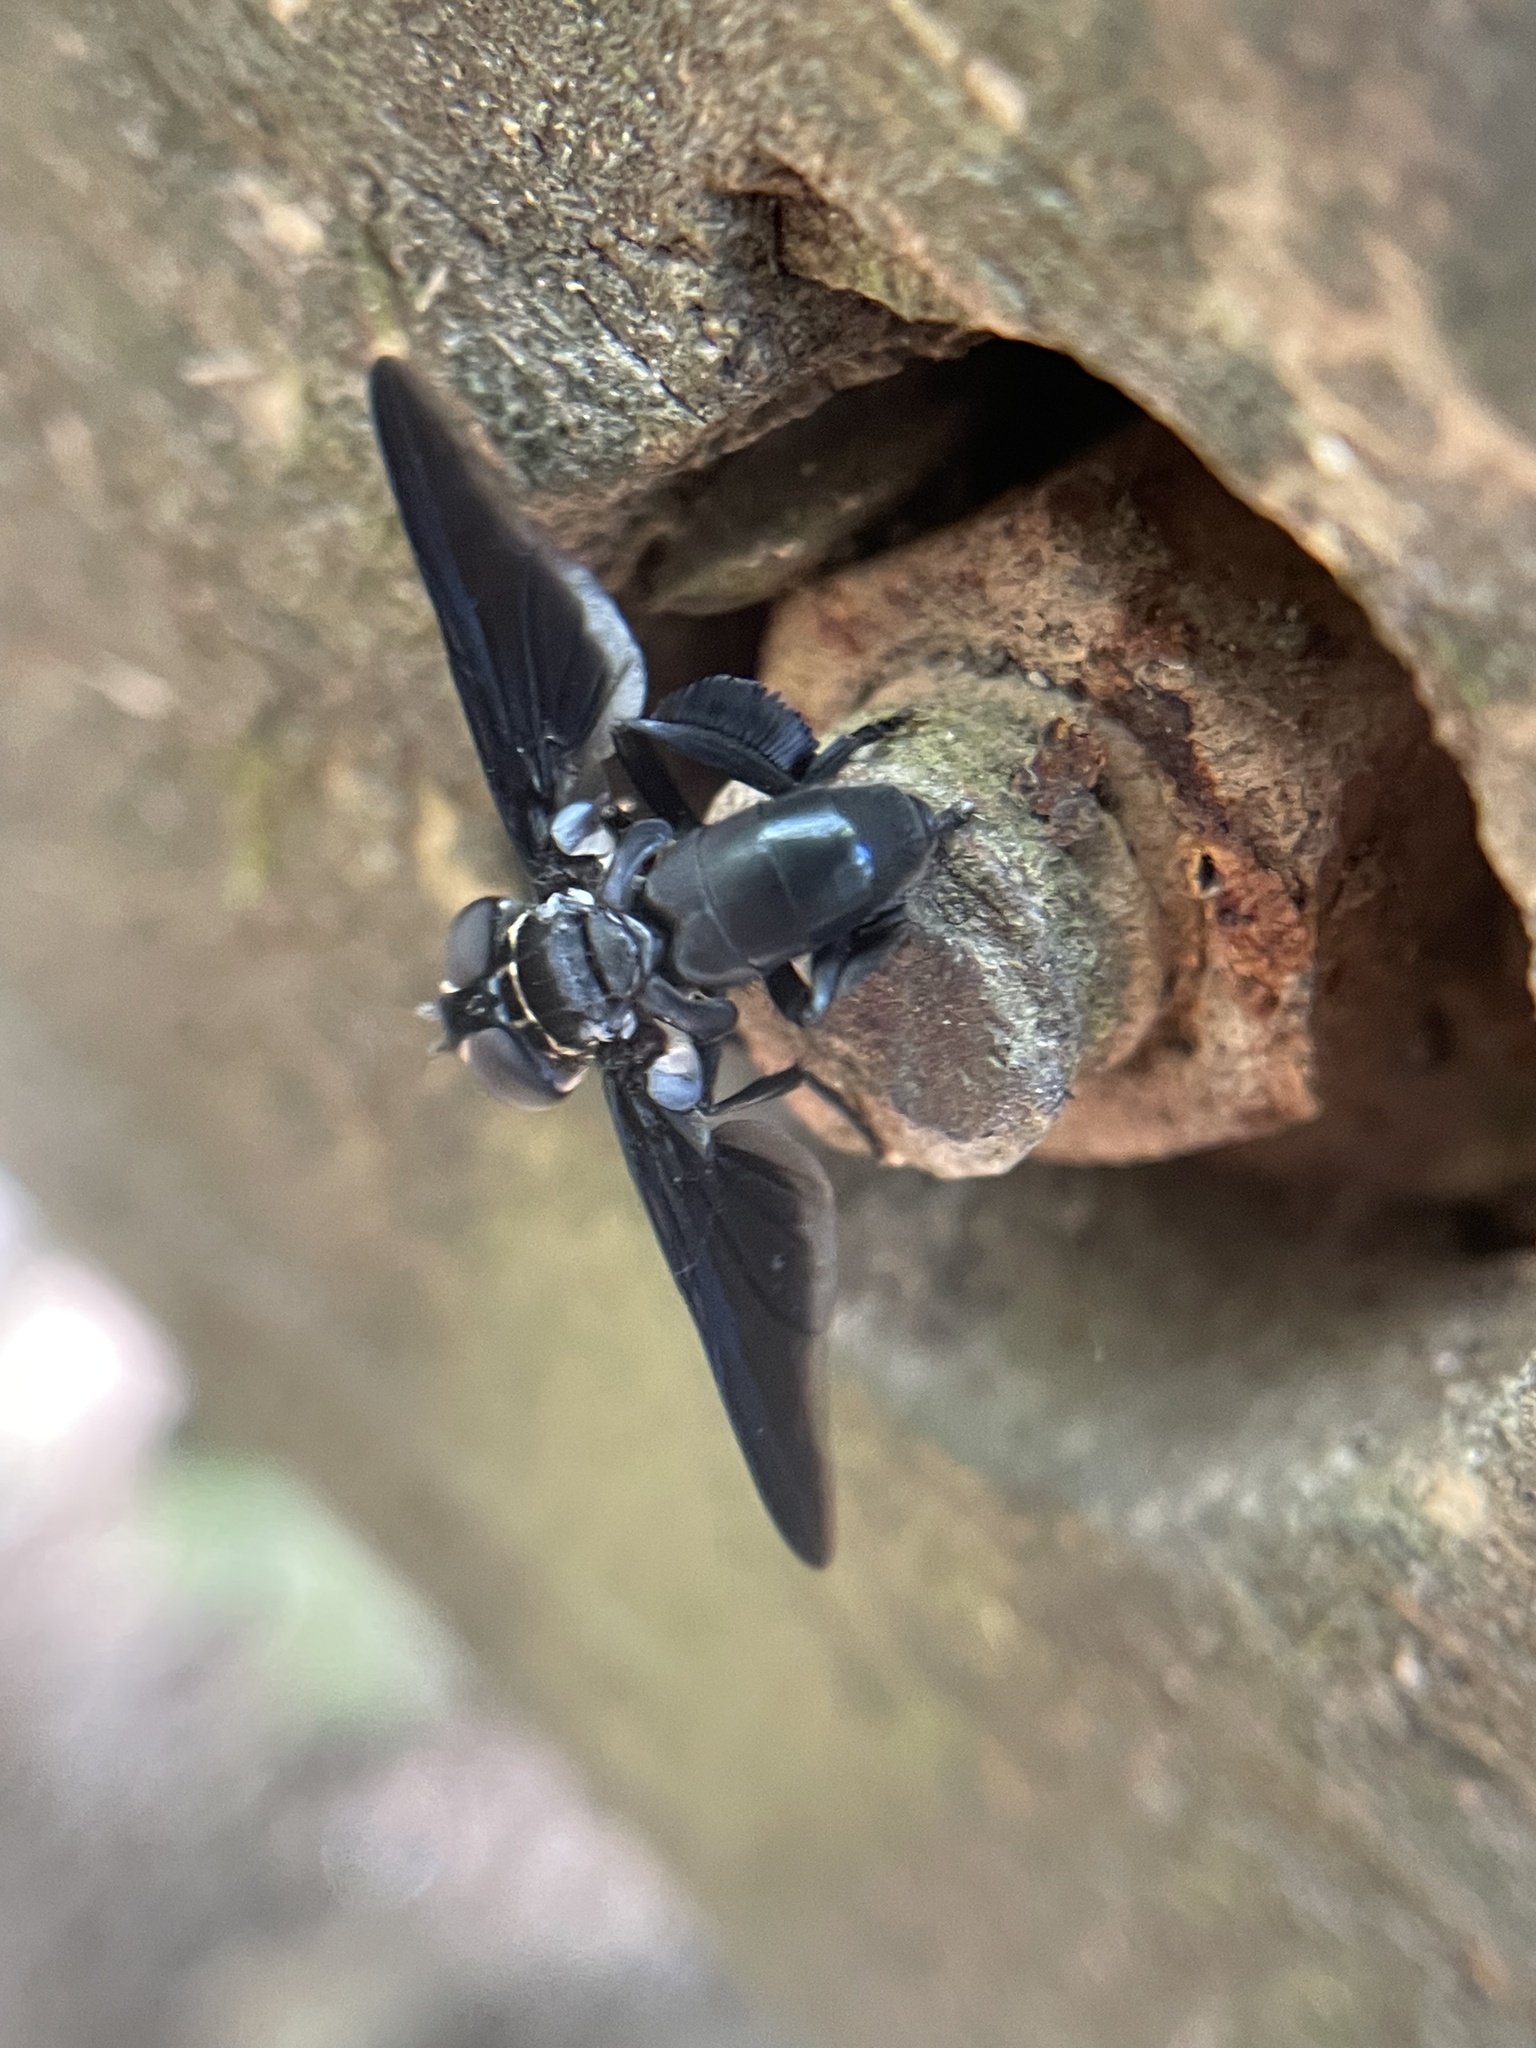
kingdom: Animalia
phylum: Arthropoda
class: Insecta
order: Diptera
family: Tachinidae
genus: Trichopoda
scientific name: Trichopoda lanipes
